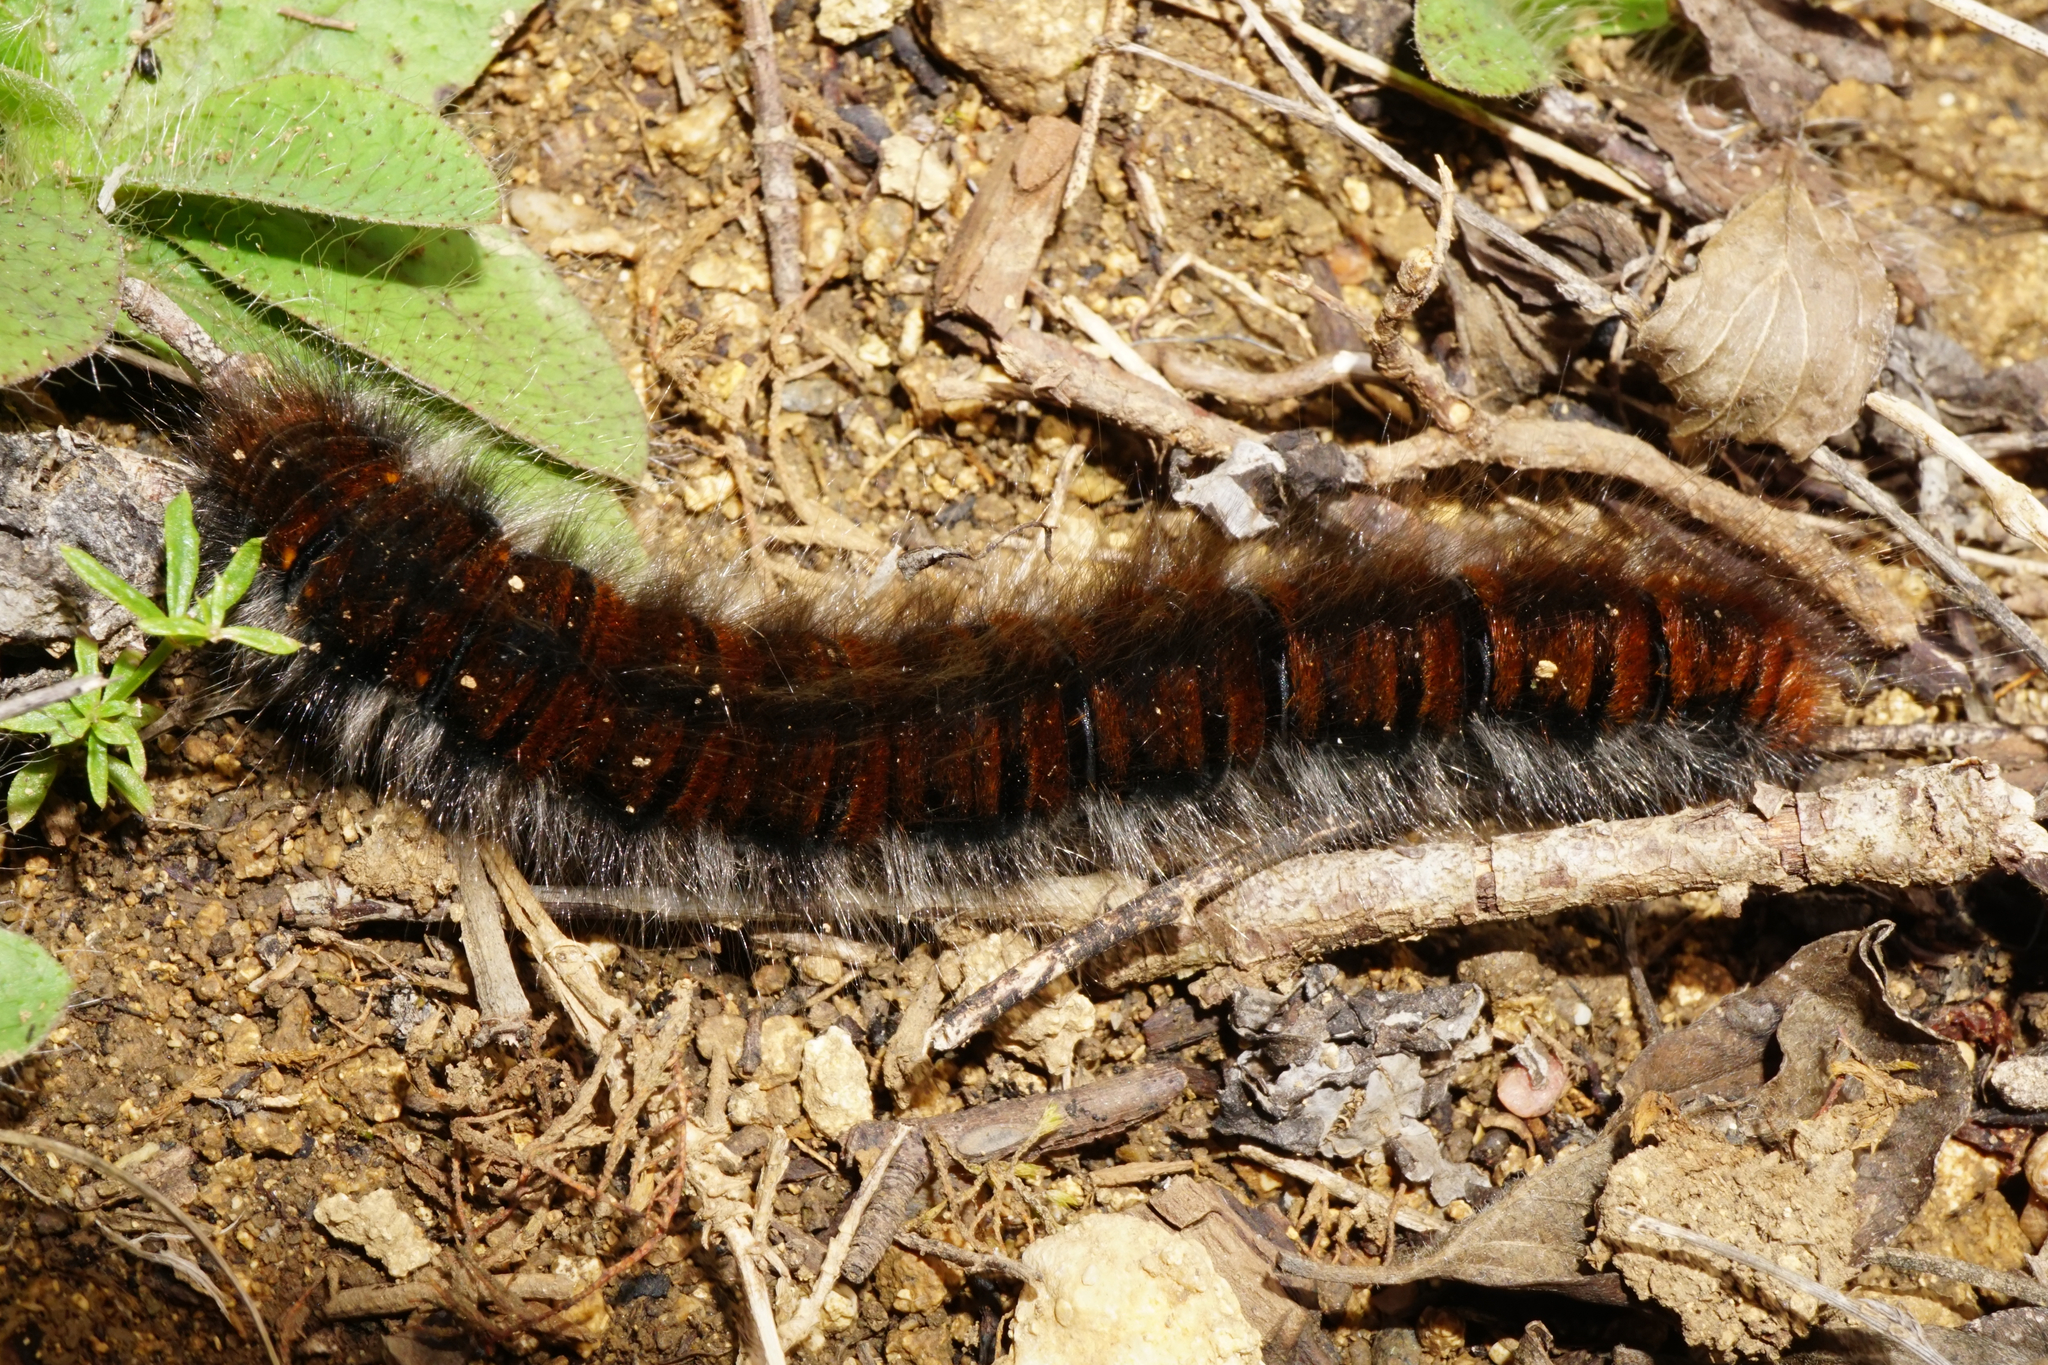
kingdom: Animalia
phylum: Arthropoda
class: Insecta
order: Lepidoptera
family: Lasiocampidae
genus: Macrothylacia
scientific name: Macrothylacia rubi
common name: Fox moth
